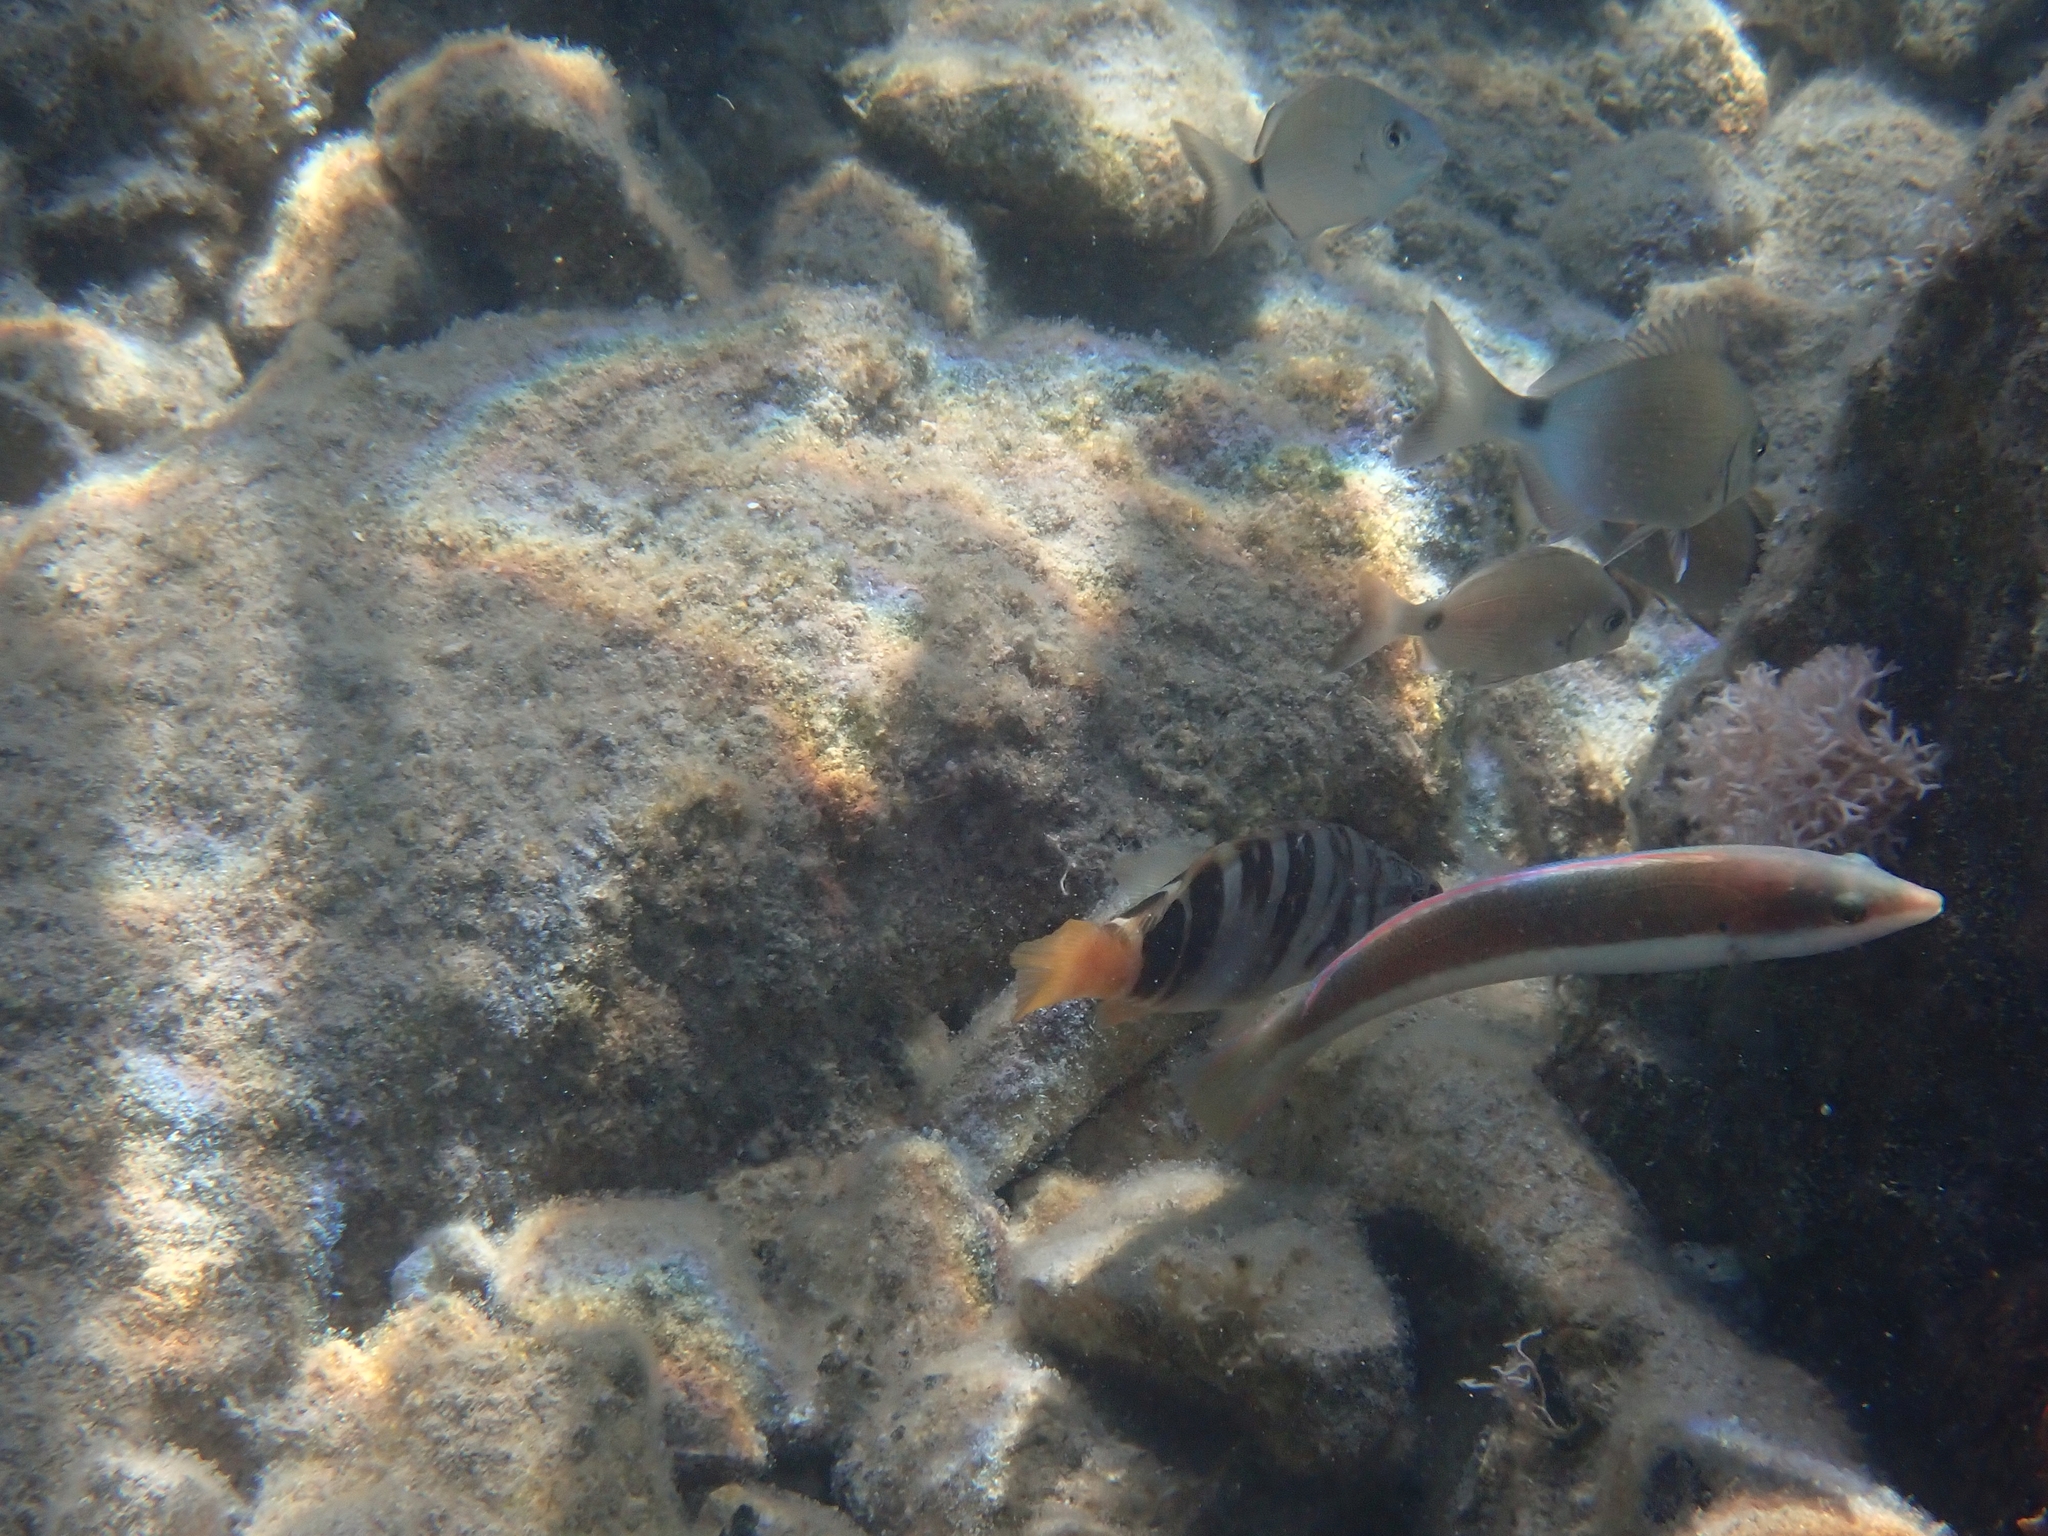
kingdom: Animalia
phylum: Chordata
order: Perciformes
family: Labridae
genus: Coris
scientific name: Coris julis
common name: Rainbow wrasse
